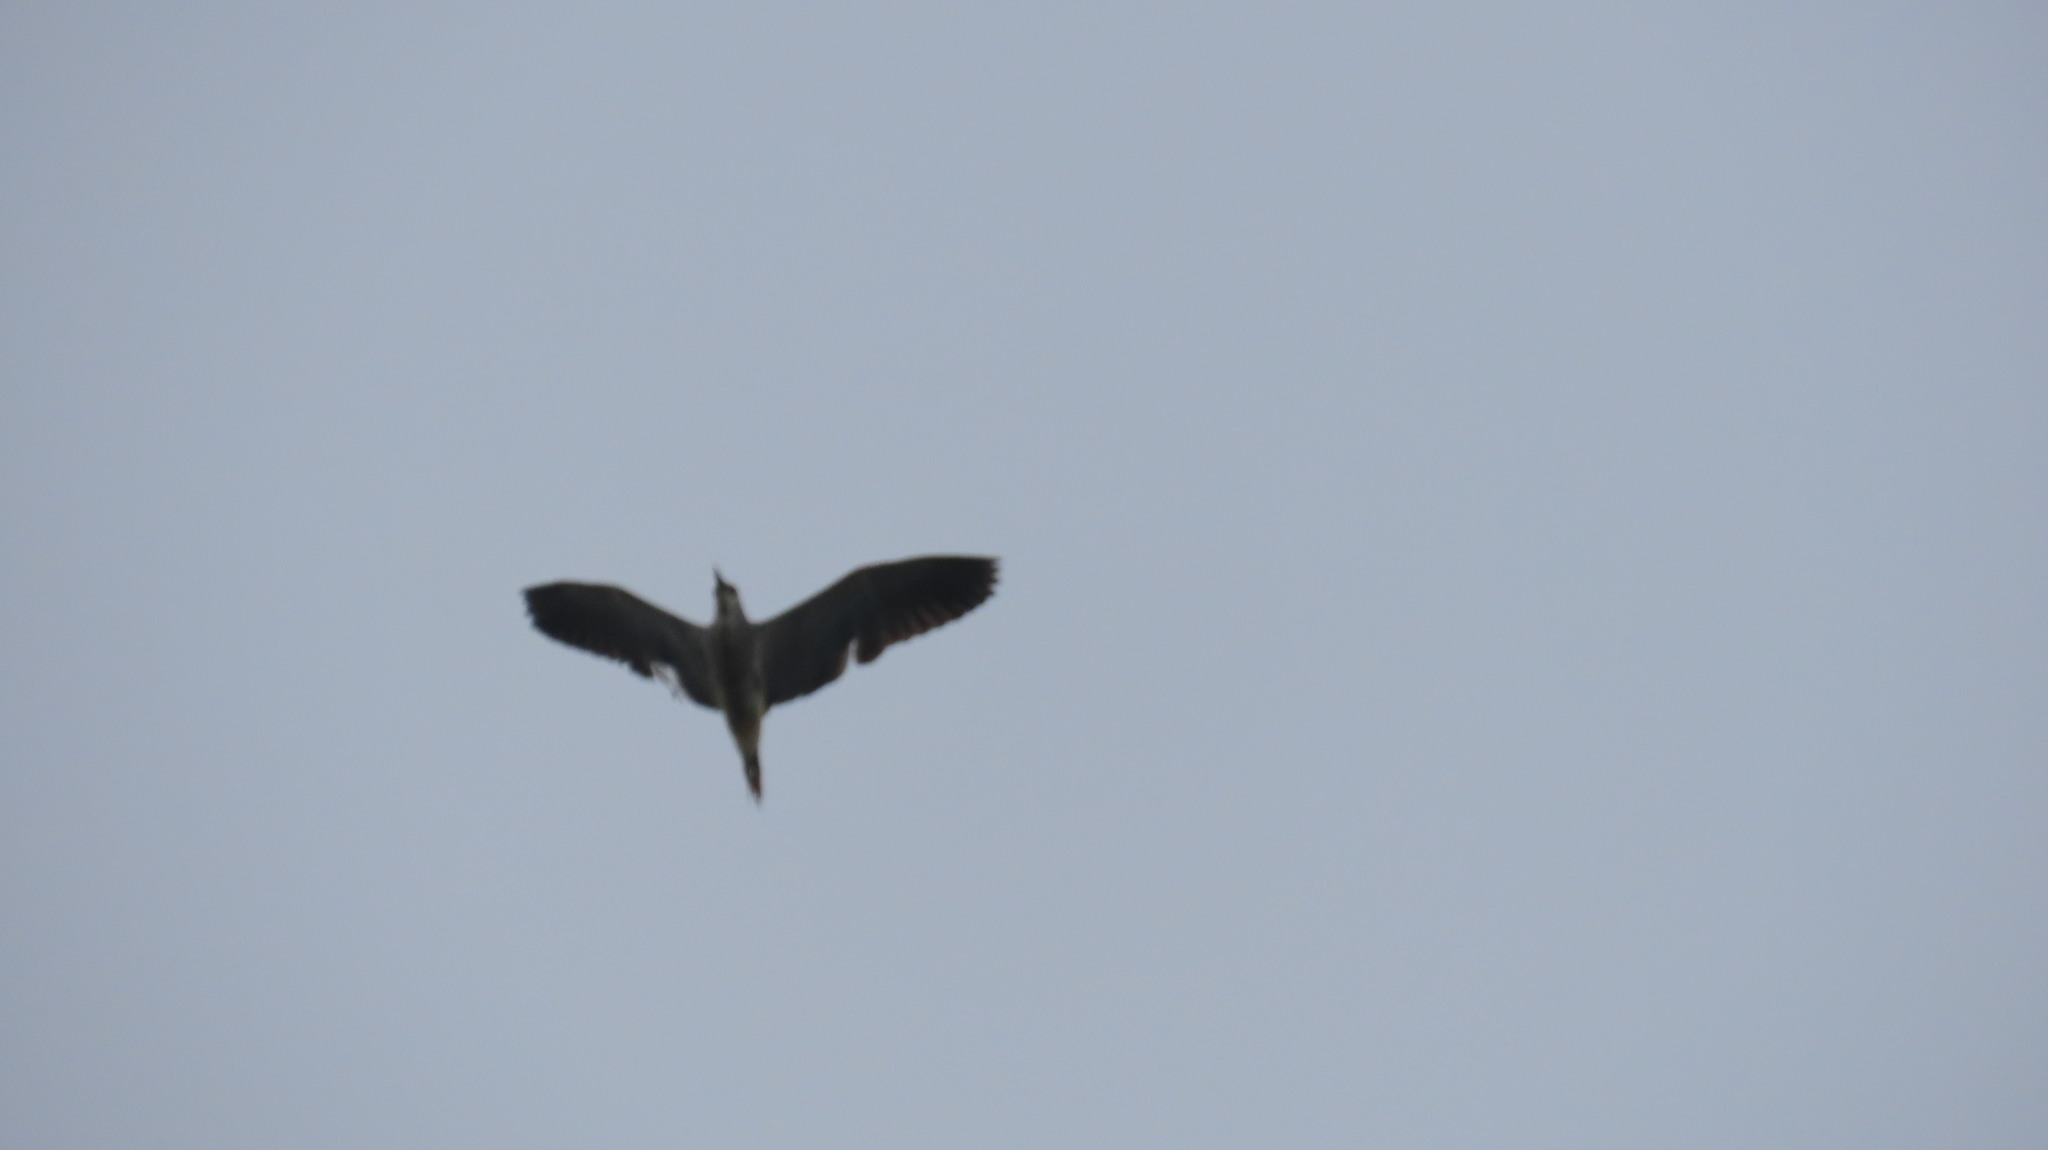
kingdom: Animalia
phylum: Chordata
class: Aves
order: Pelecaniformes
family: Ardeidae
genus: Nycticorax
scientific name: Nycticorax nycticorax
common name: Black-crowned night heron
